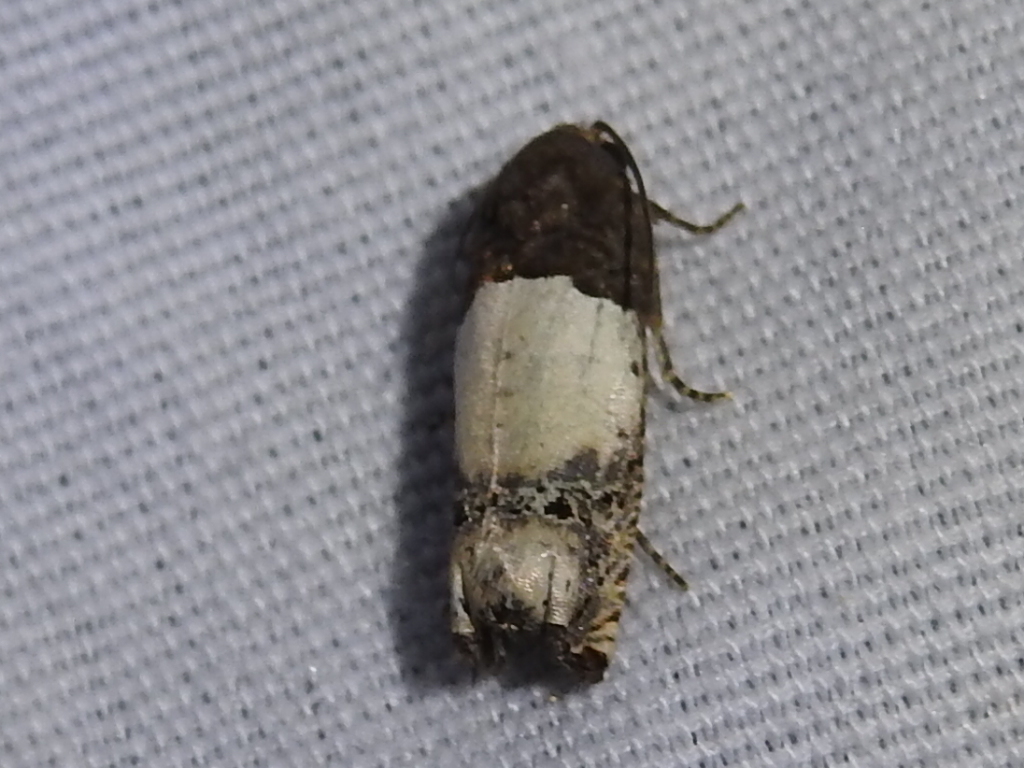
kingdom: Animalia
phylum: Arthropoda
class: Insecta
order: Lepidoptera
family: Tortricidae
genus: Epiblema
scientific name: Epiblema scudderiana
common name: Goldenrod gall moth
